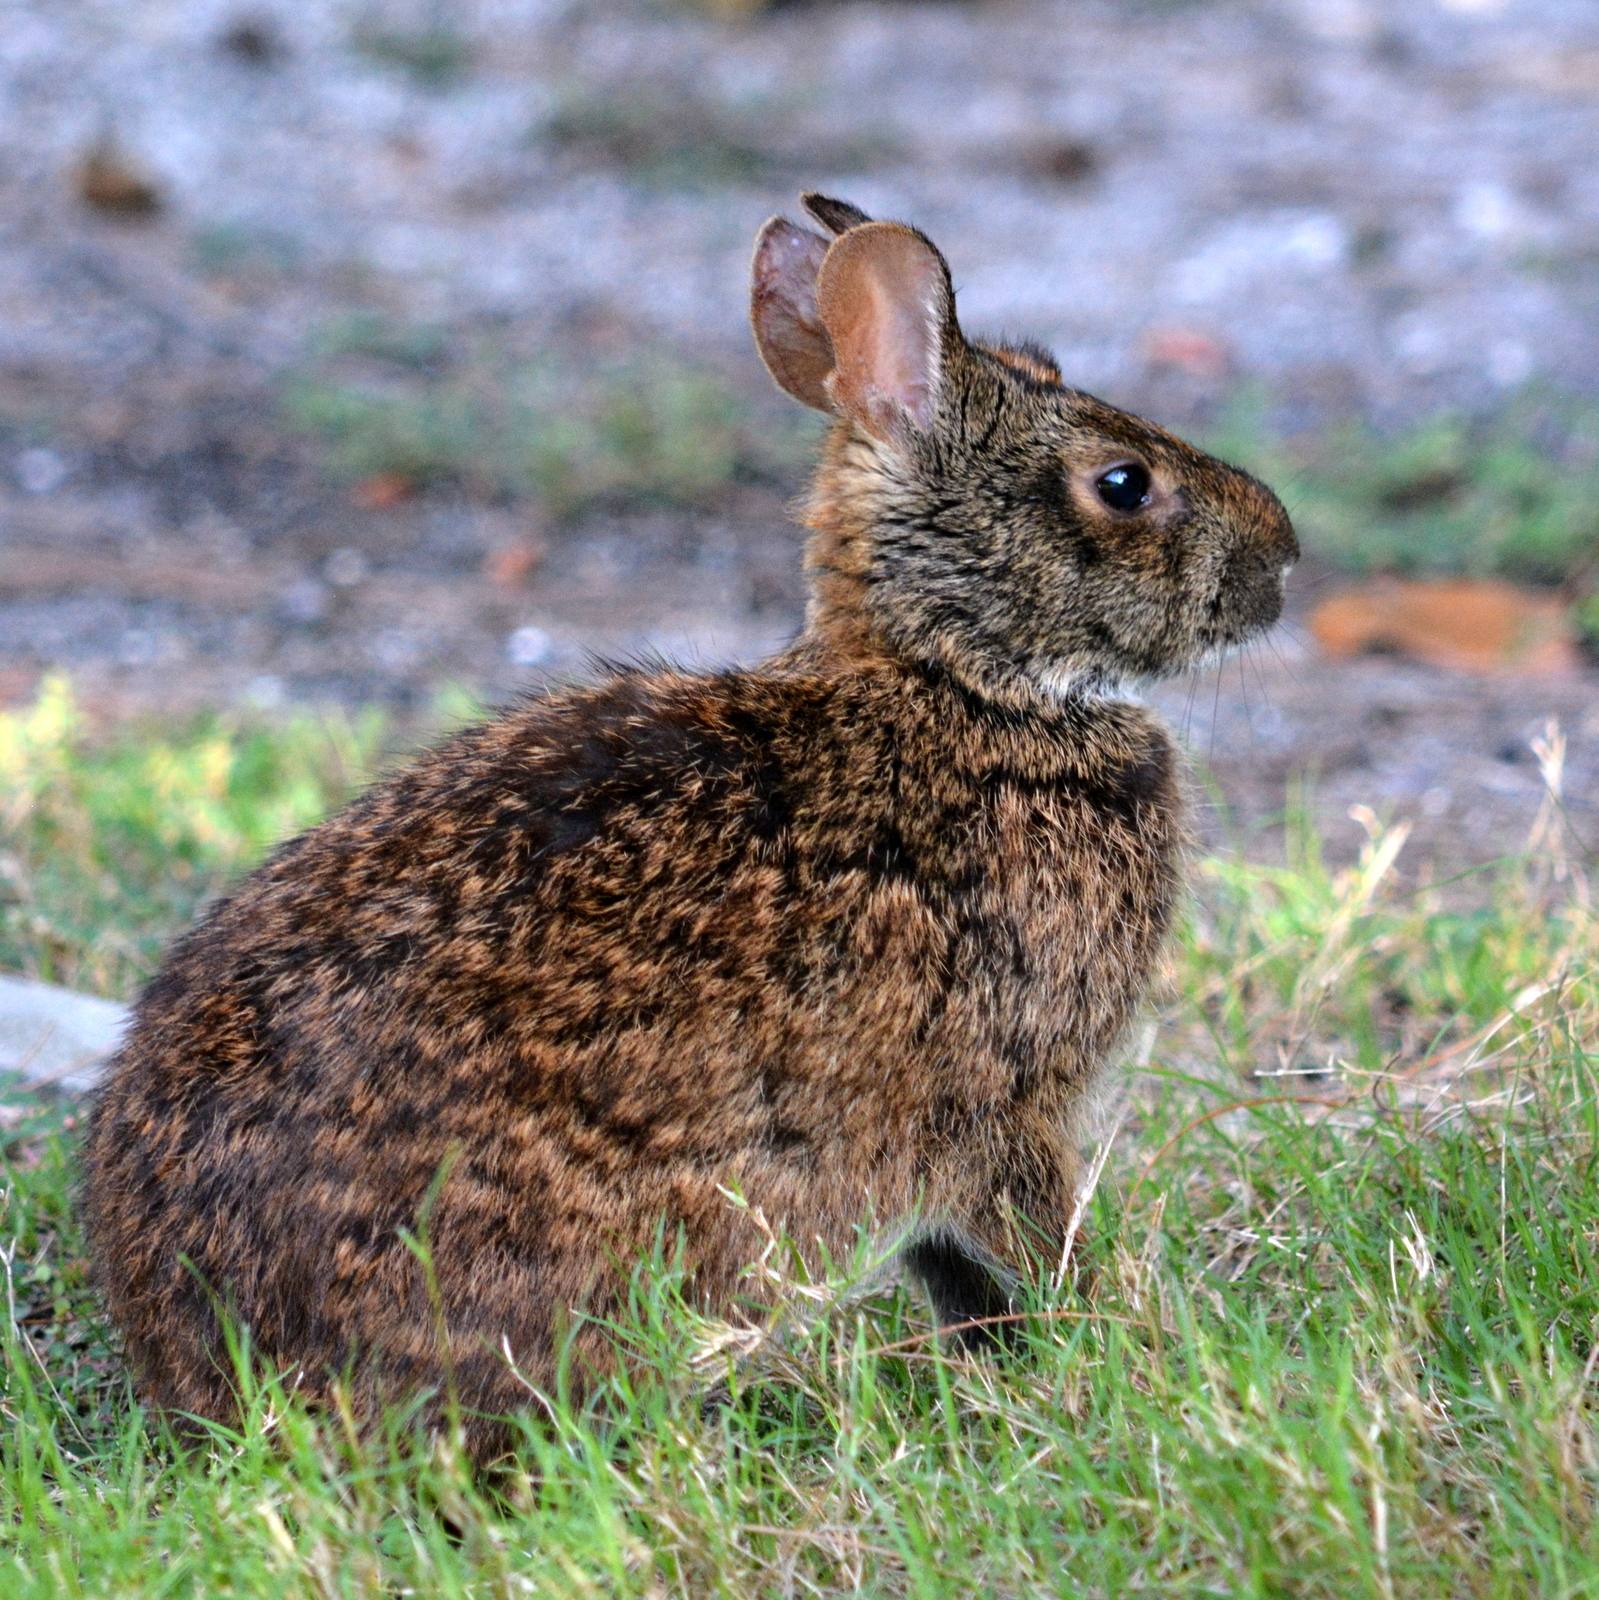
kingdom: Animalia
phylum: Chordata
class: Mammalia
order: Lagomorpha
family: Leporidae
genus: Sylvilagus
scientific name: Sylvilagus palustris
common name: Marsh rabbit
